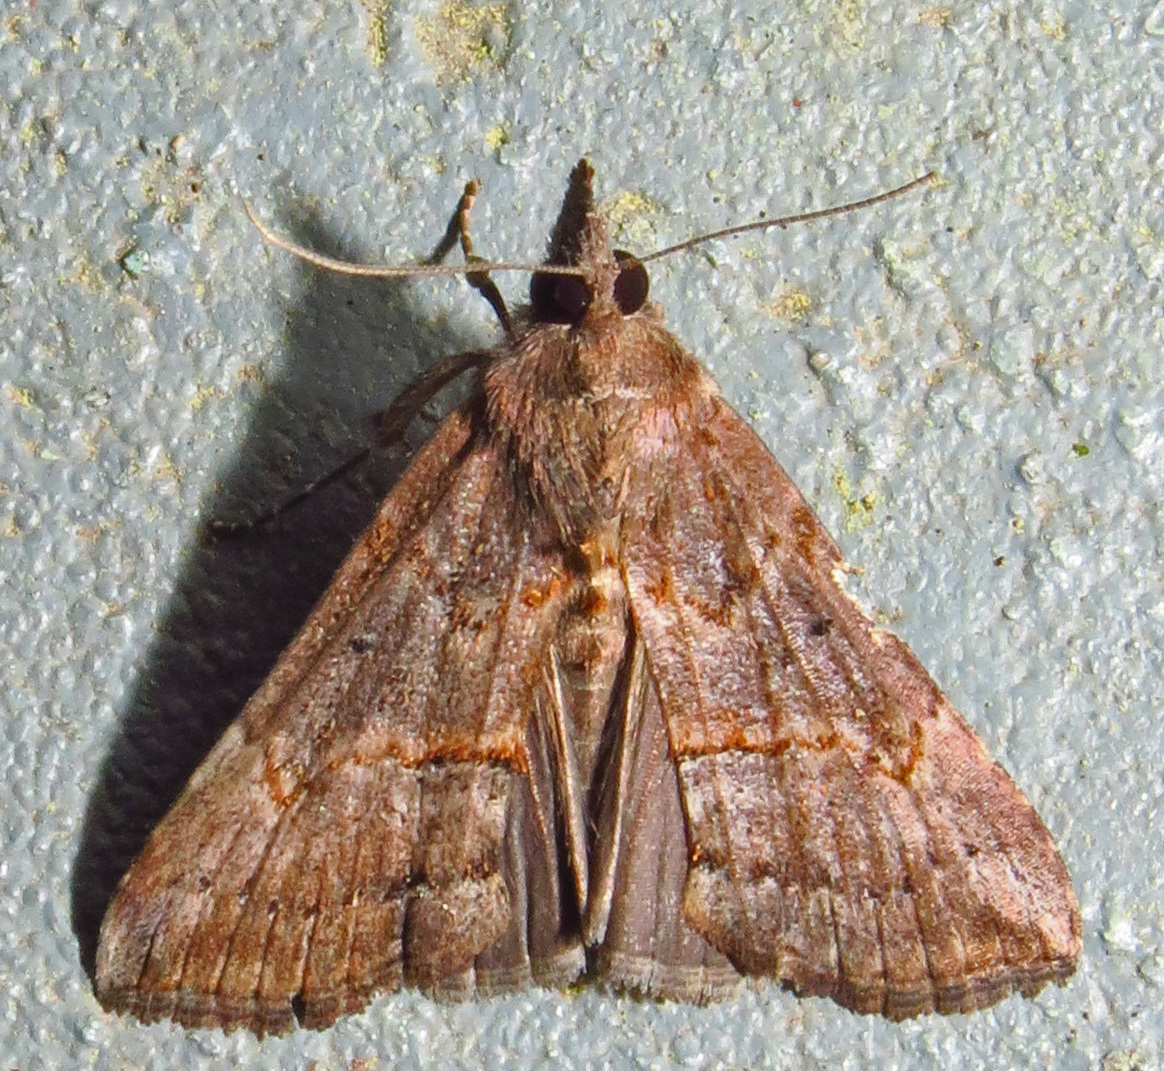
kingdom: Animalia
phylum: Arthropoda
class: Insecta
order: Lepidoptera
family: Erebidae
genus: Hypena
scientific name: Hypena scabra
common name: Green cloverworm
